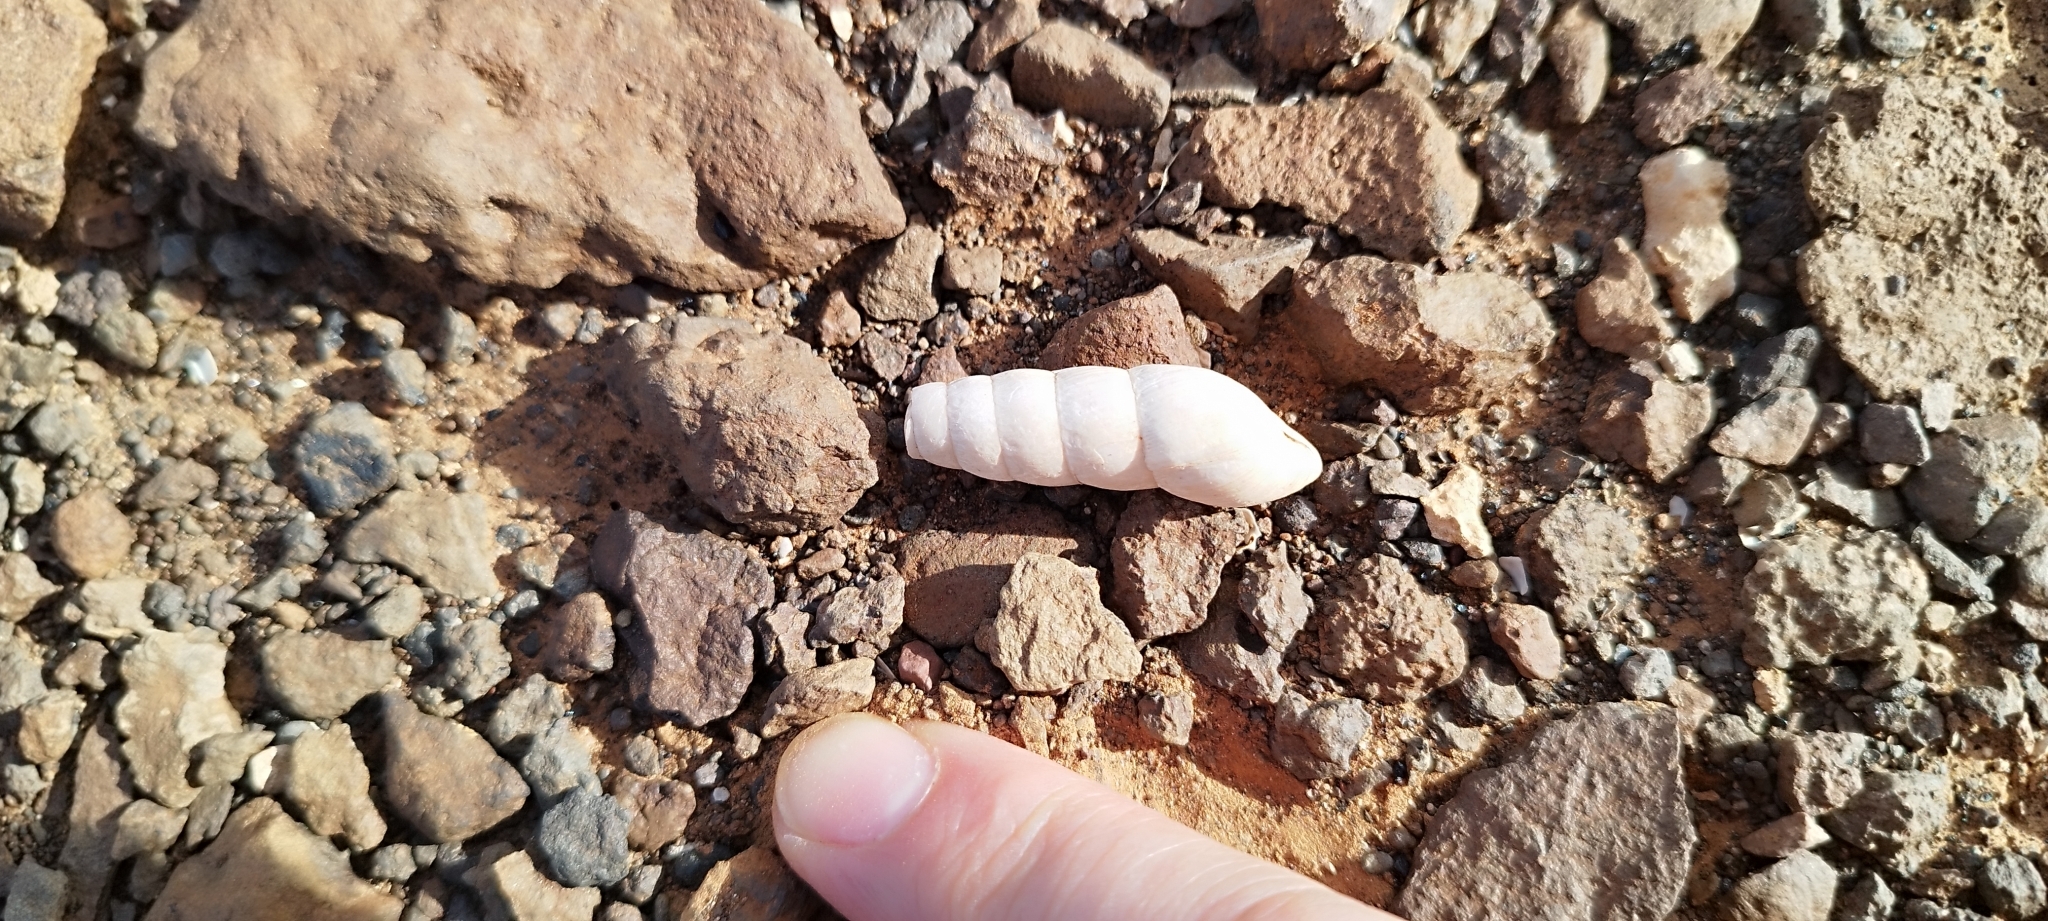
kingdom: Animalia
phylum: Mollusca
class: Gastropoda
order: Stylommatophora
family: Achatinidae
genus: Rumina
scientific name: Rumina decollata
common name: Decollate snail
